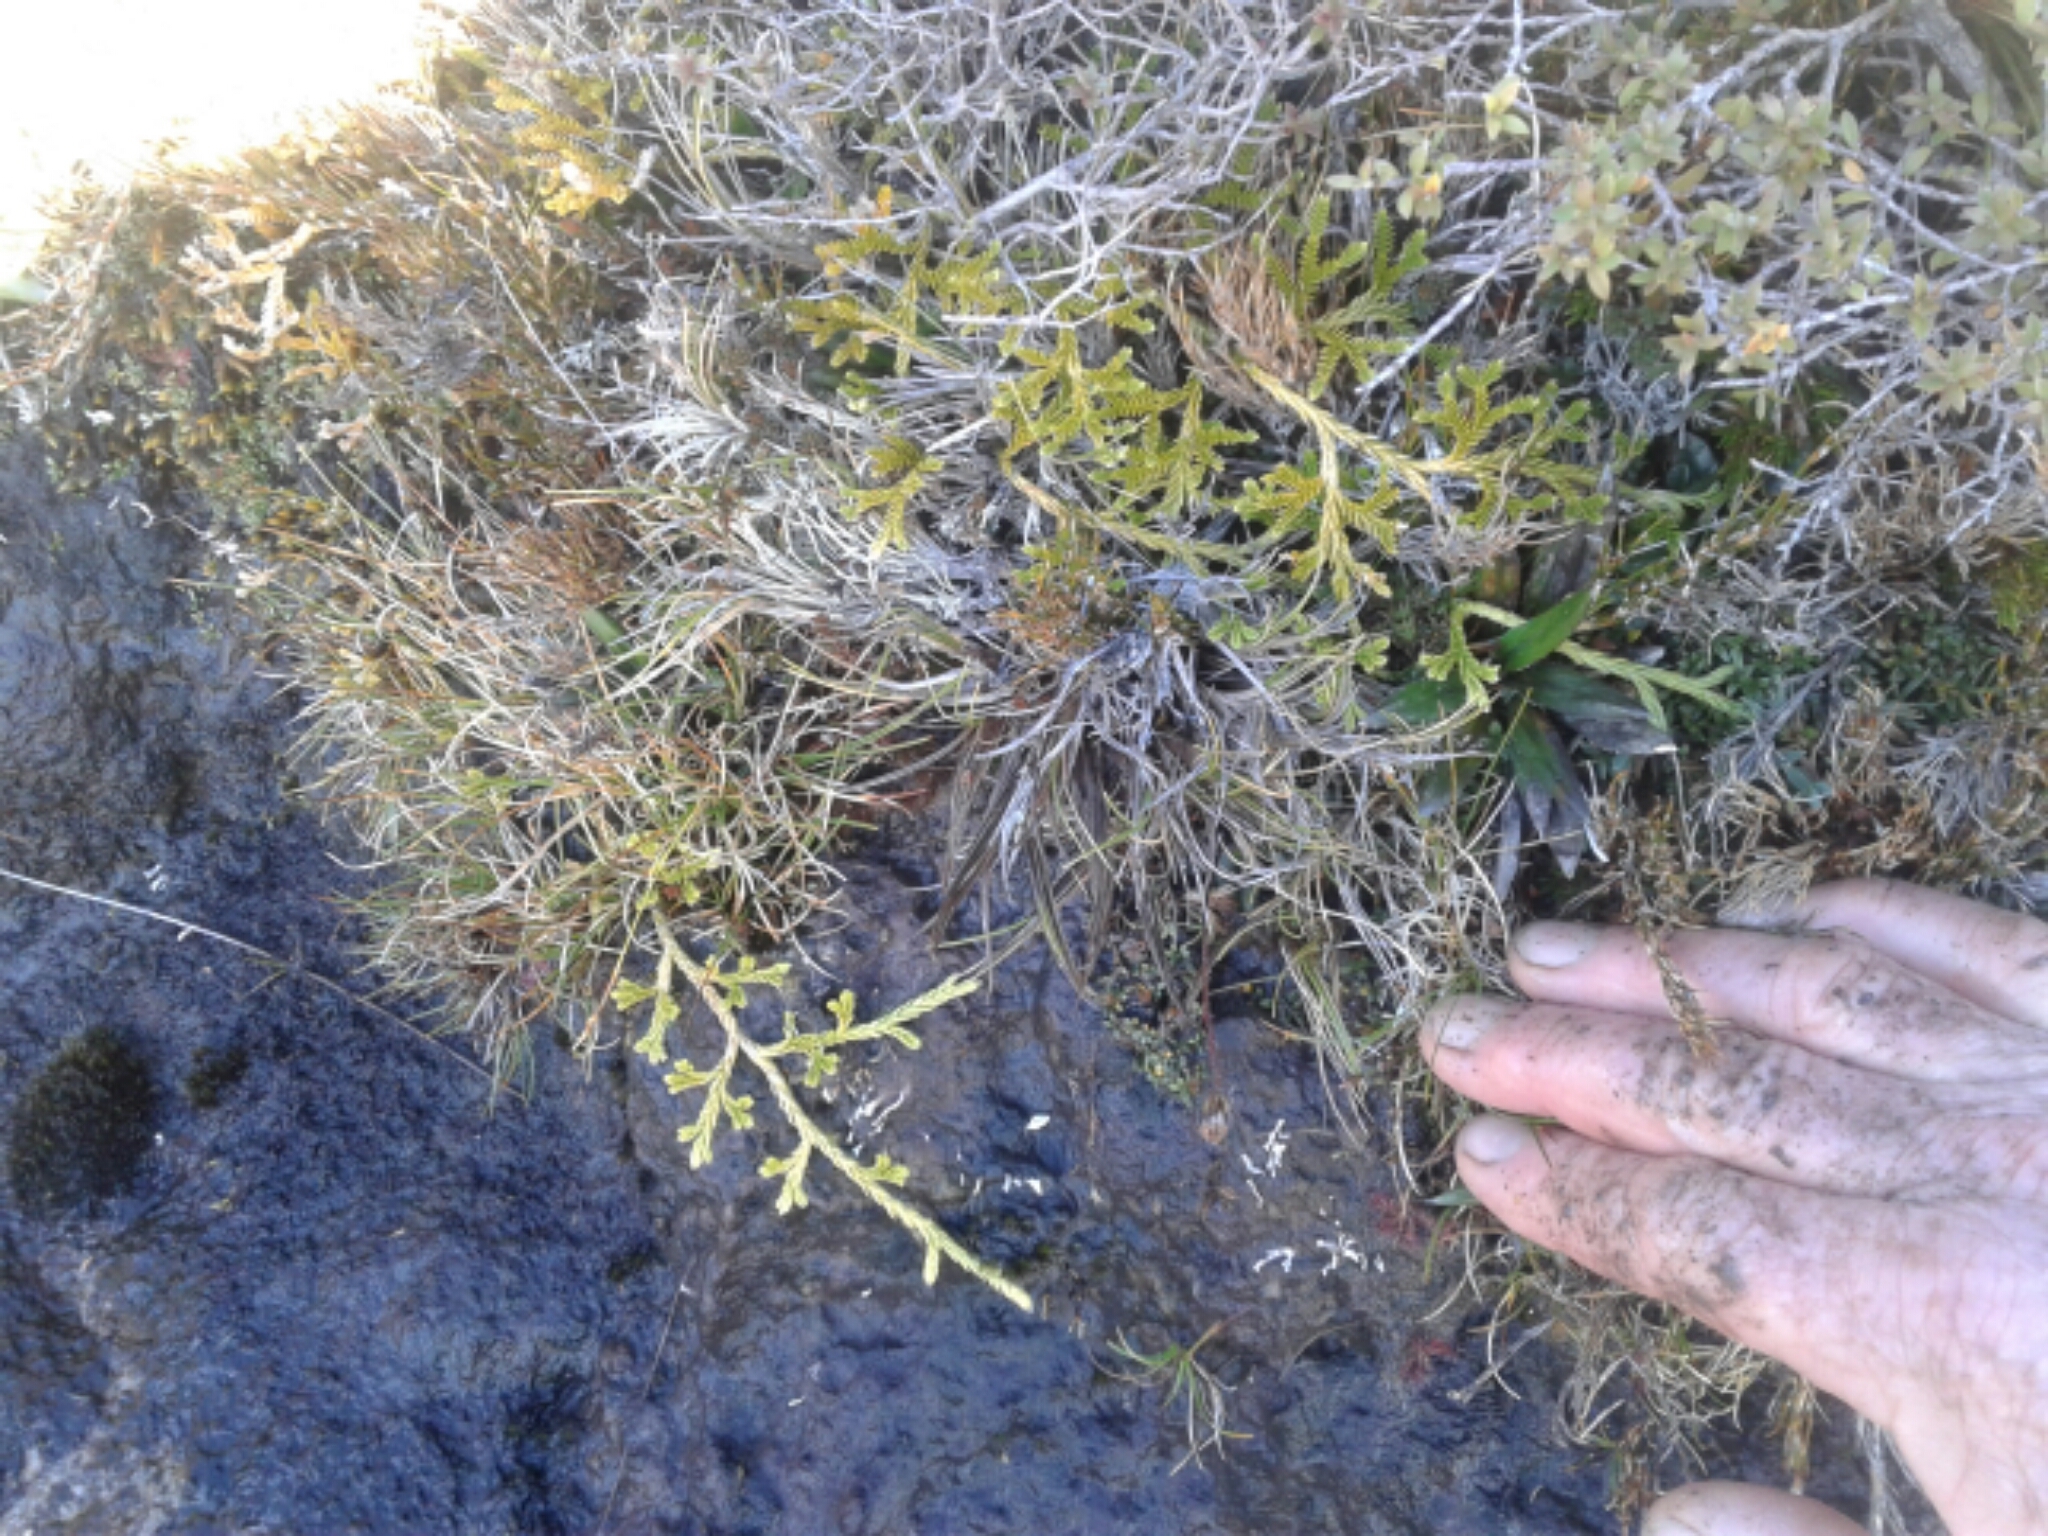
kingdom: Plantae
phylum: Tracheophyta
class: Lycopodiopsida
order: Lycopodiales
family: Lycopodiaceae
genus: Diphasium
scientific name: Diphasium scariosum
